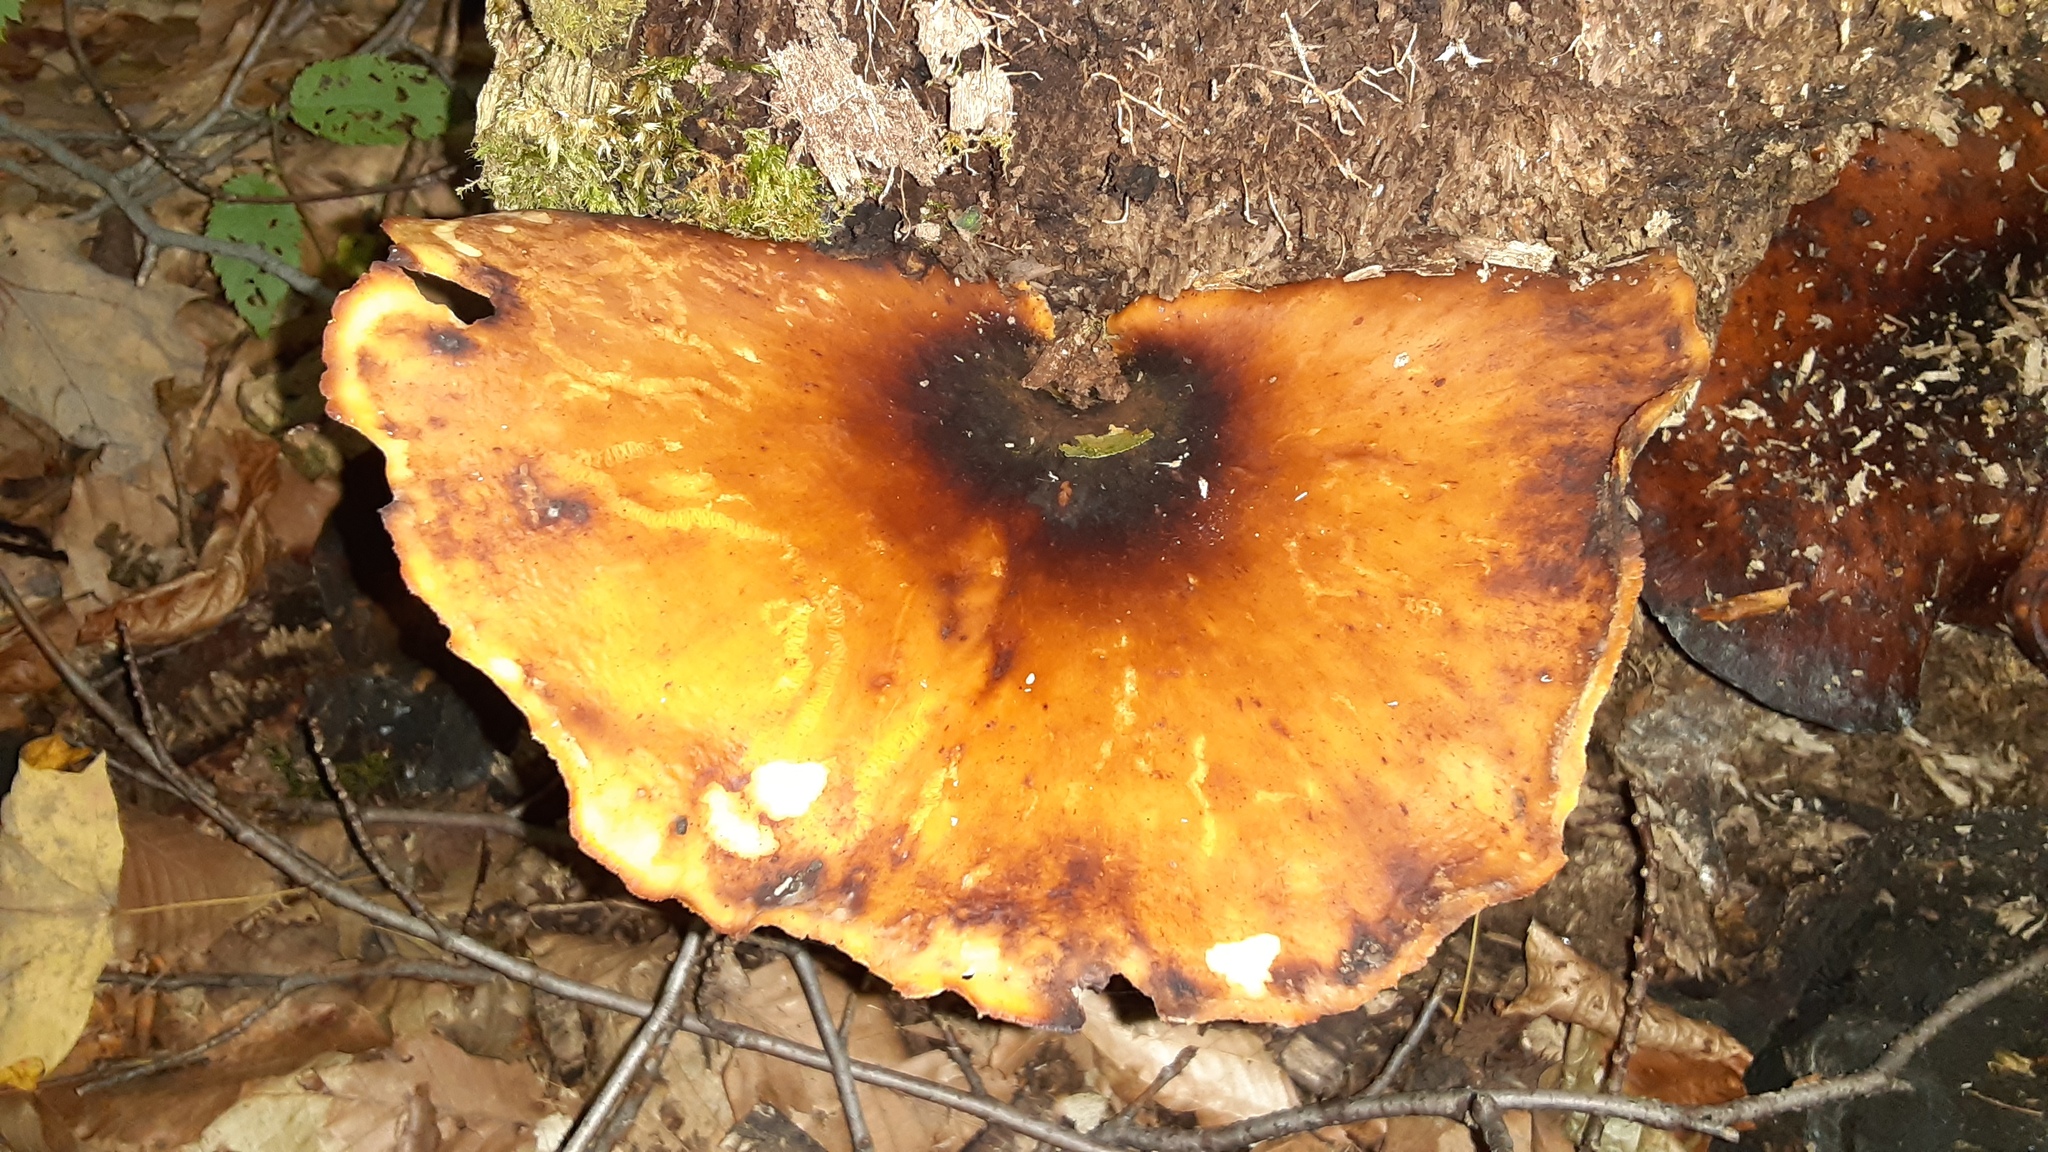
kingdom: Fungi
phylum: Basidiomycota
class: Agaricomycetes
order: Polyporales
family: Polyporaceae
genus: Picipes
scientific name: Picipes badius
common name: Bay polypore
